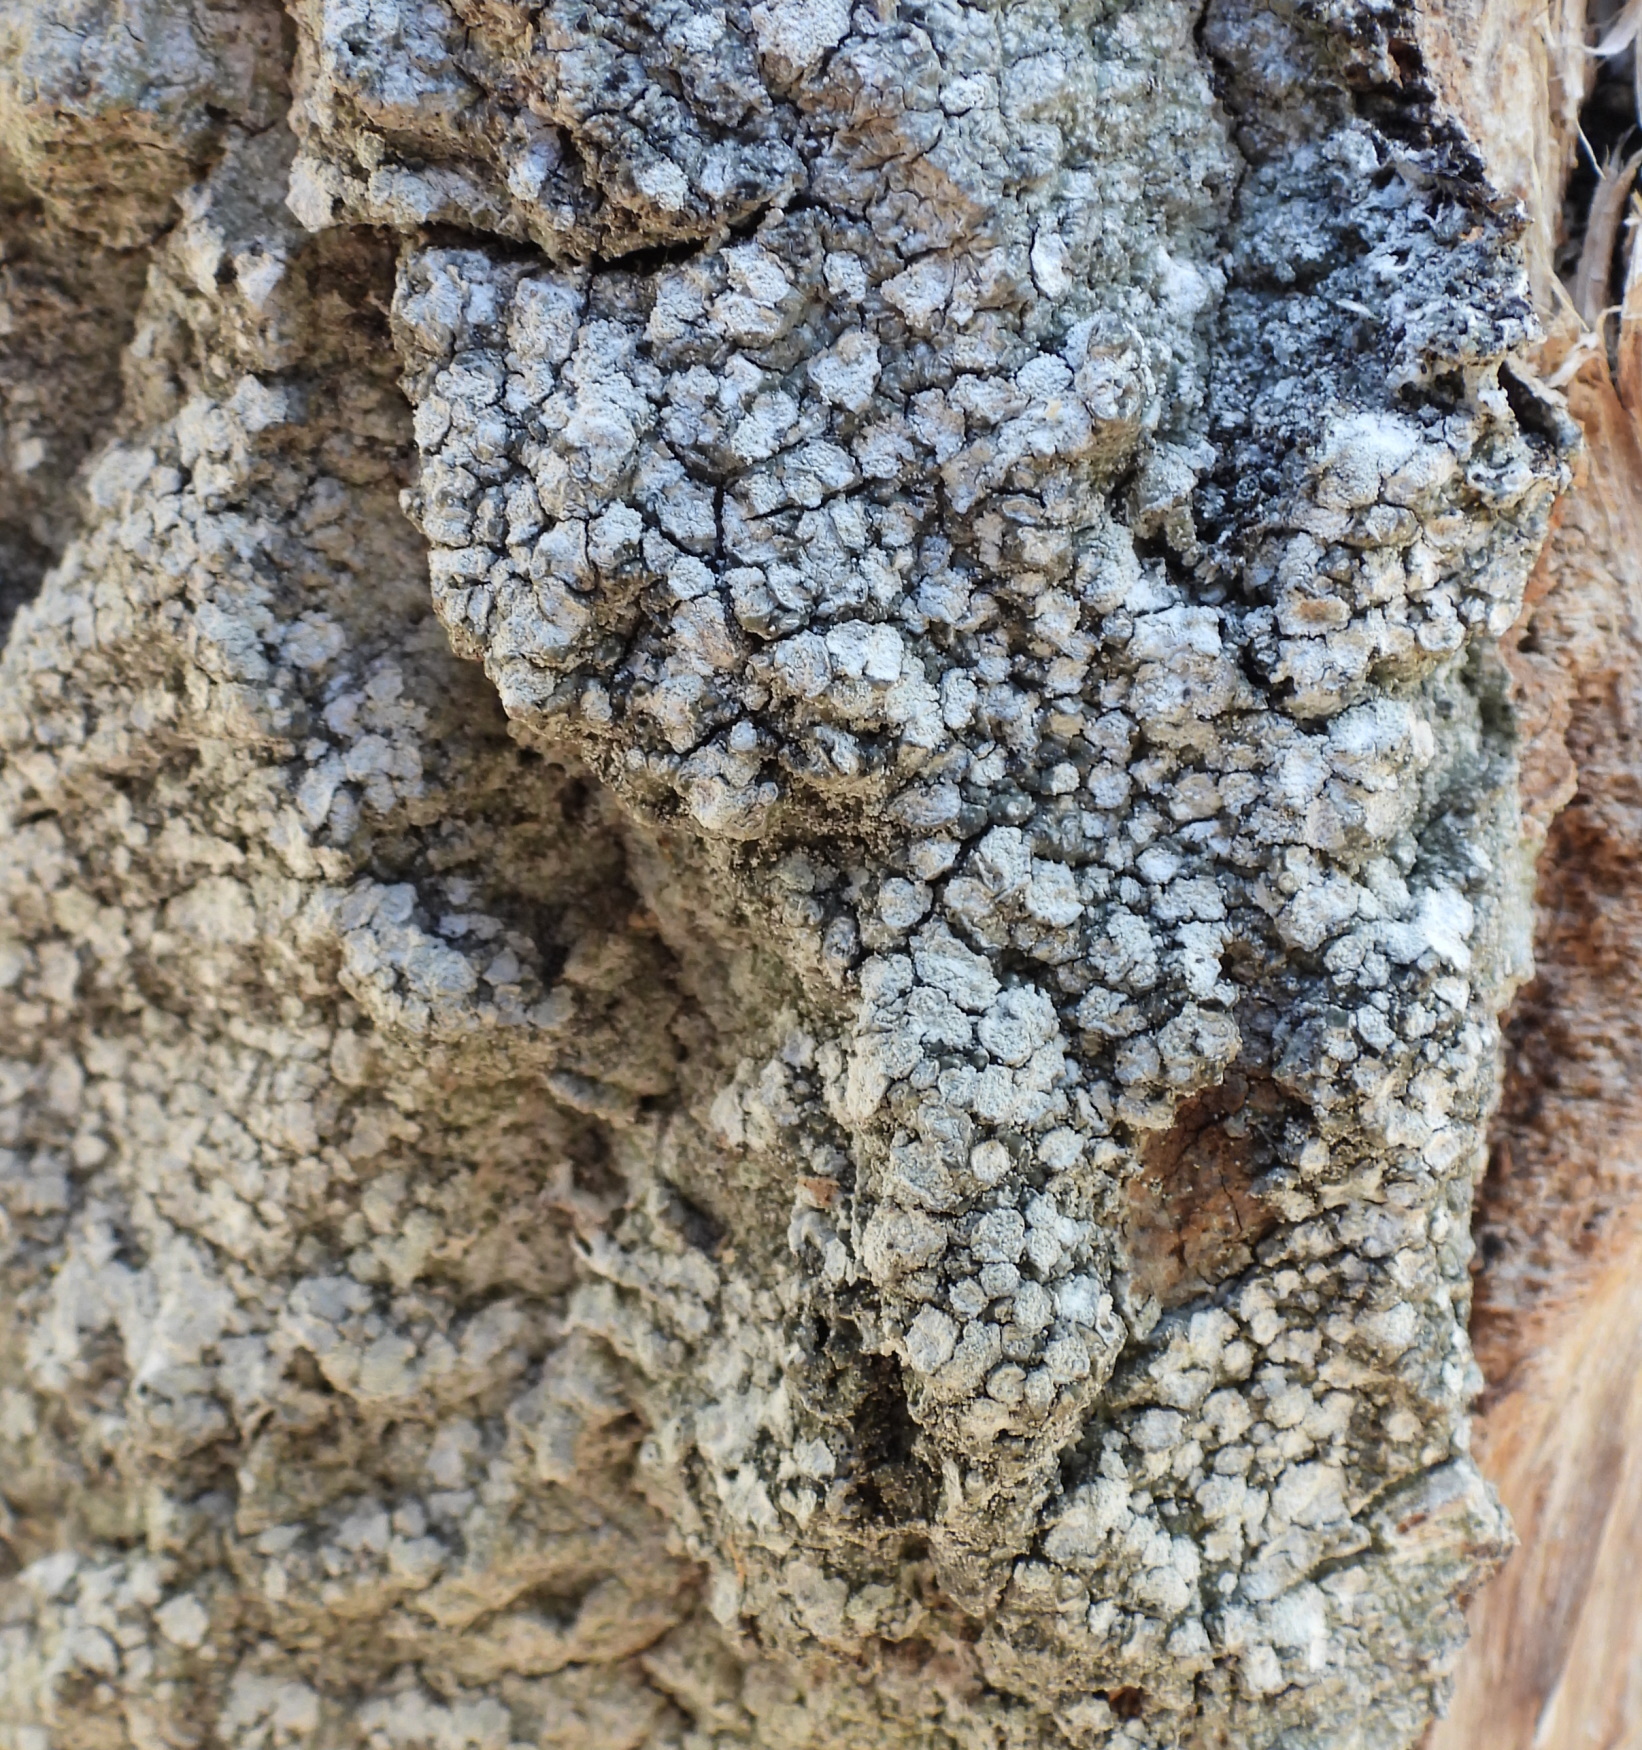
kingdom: Fungi
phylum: Ascomycota
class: Lecanoromycetes
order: Pertusariales
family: Pertusariaceae
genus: Lepra
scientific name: Lepra albescens
